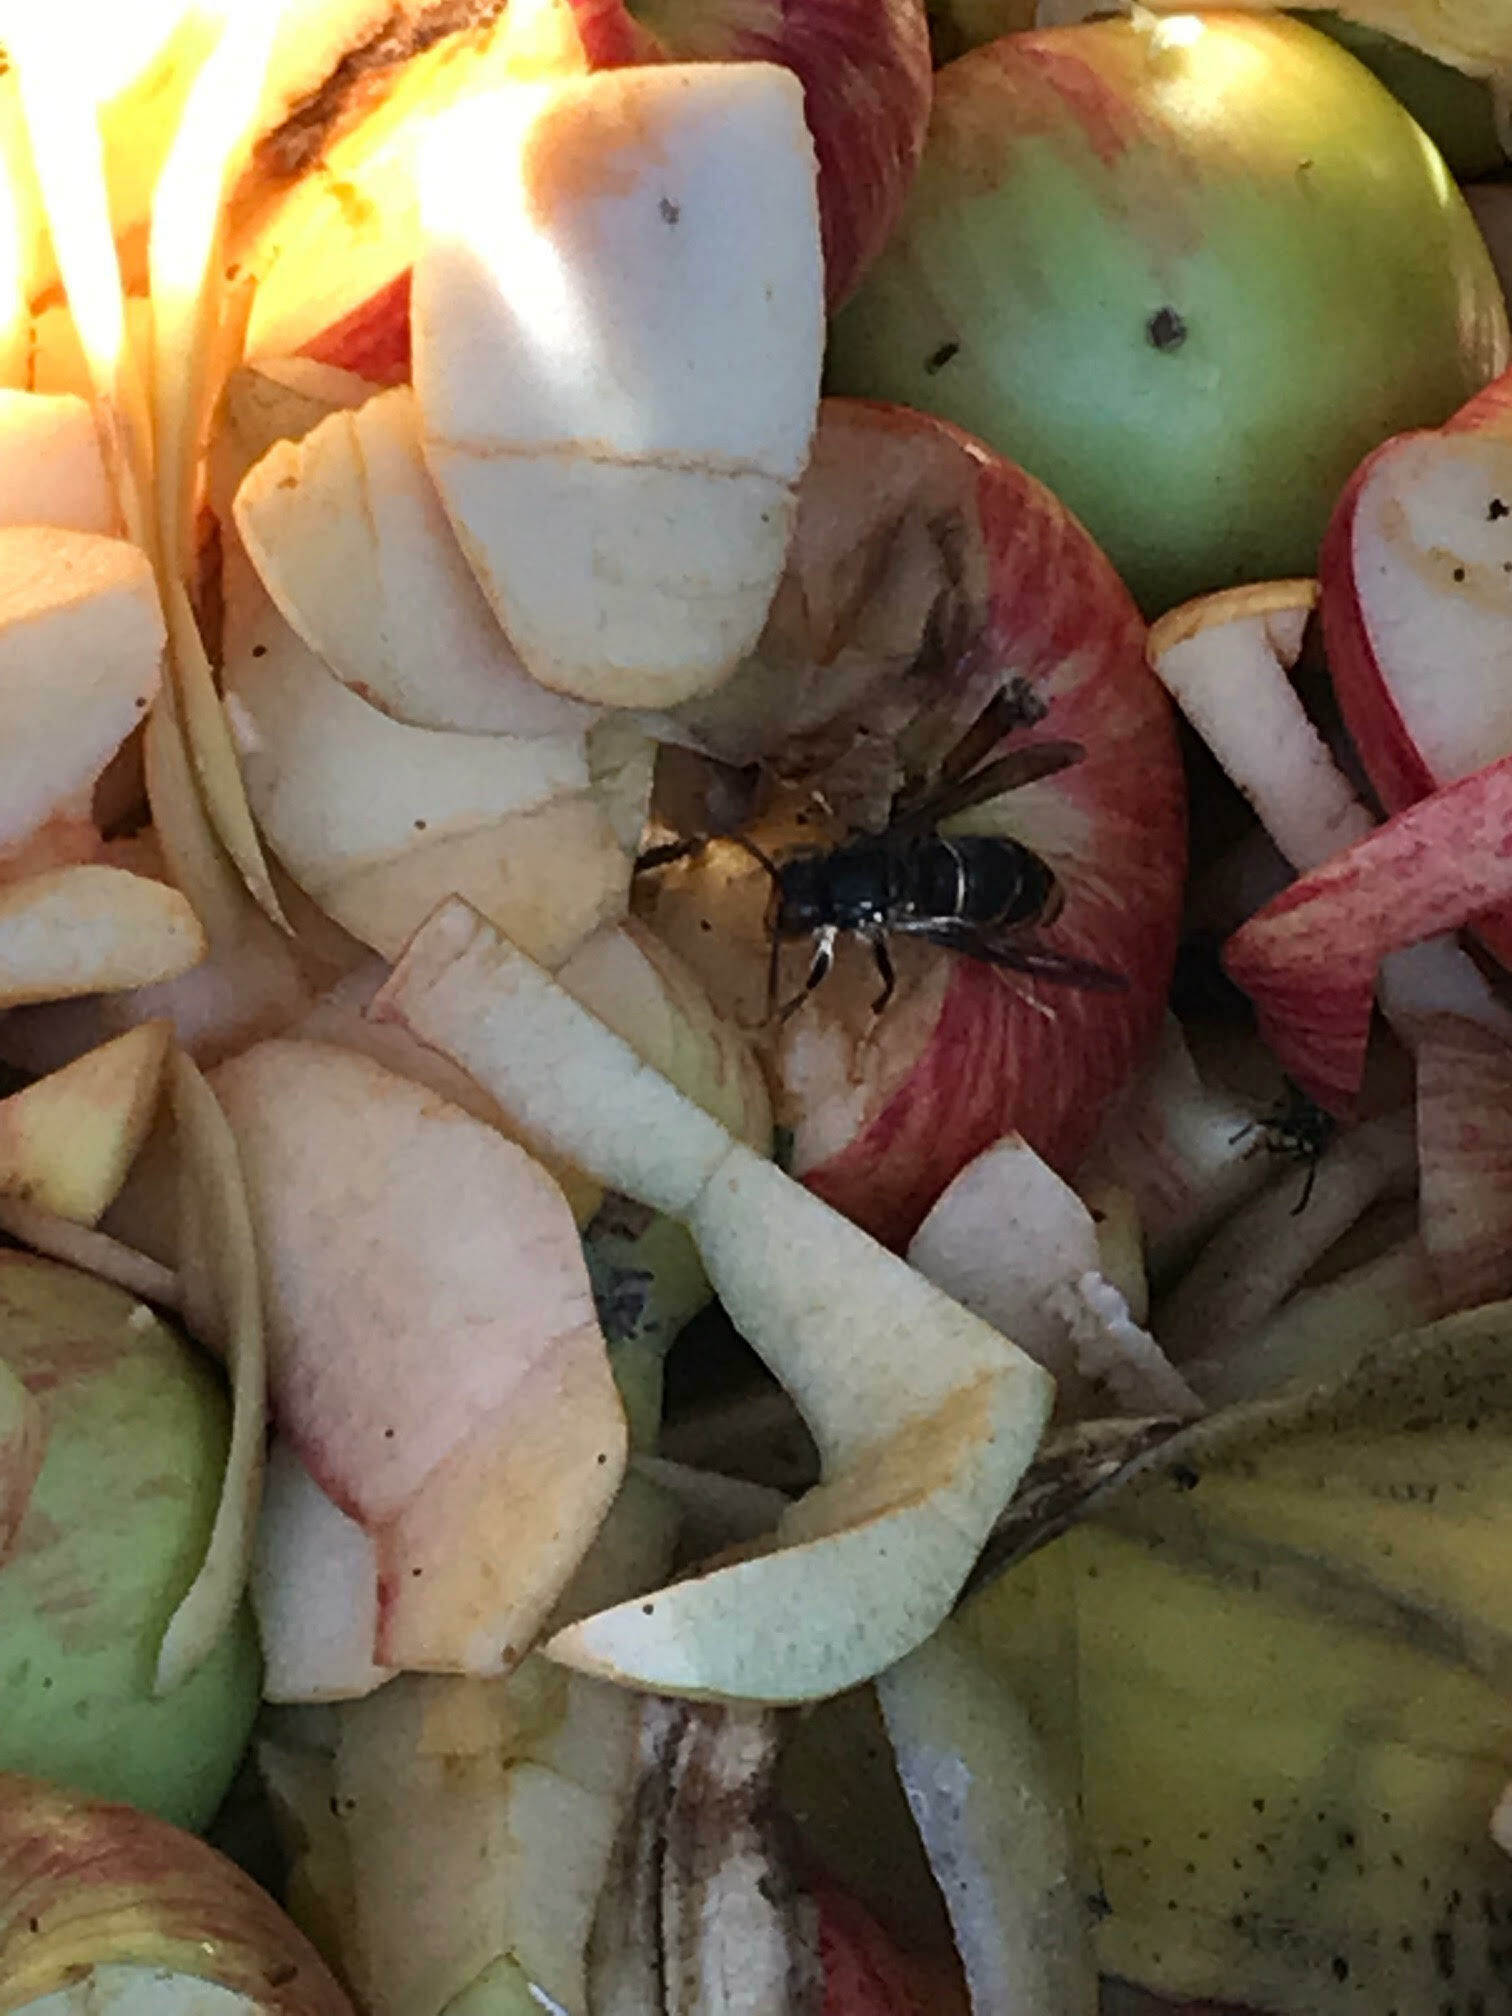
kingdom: Animalia
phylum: Arthropoda
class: Insecta
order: Hymenoptera
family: Vespidae
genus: Vespa
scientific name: Vespa velutina
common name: Asian hornet
